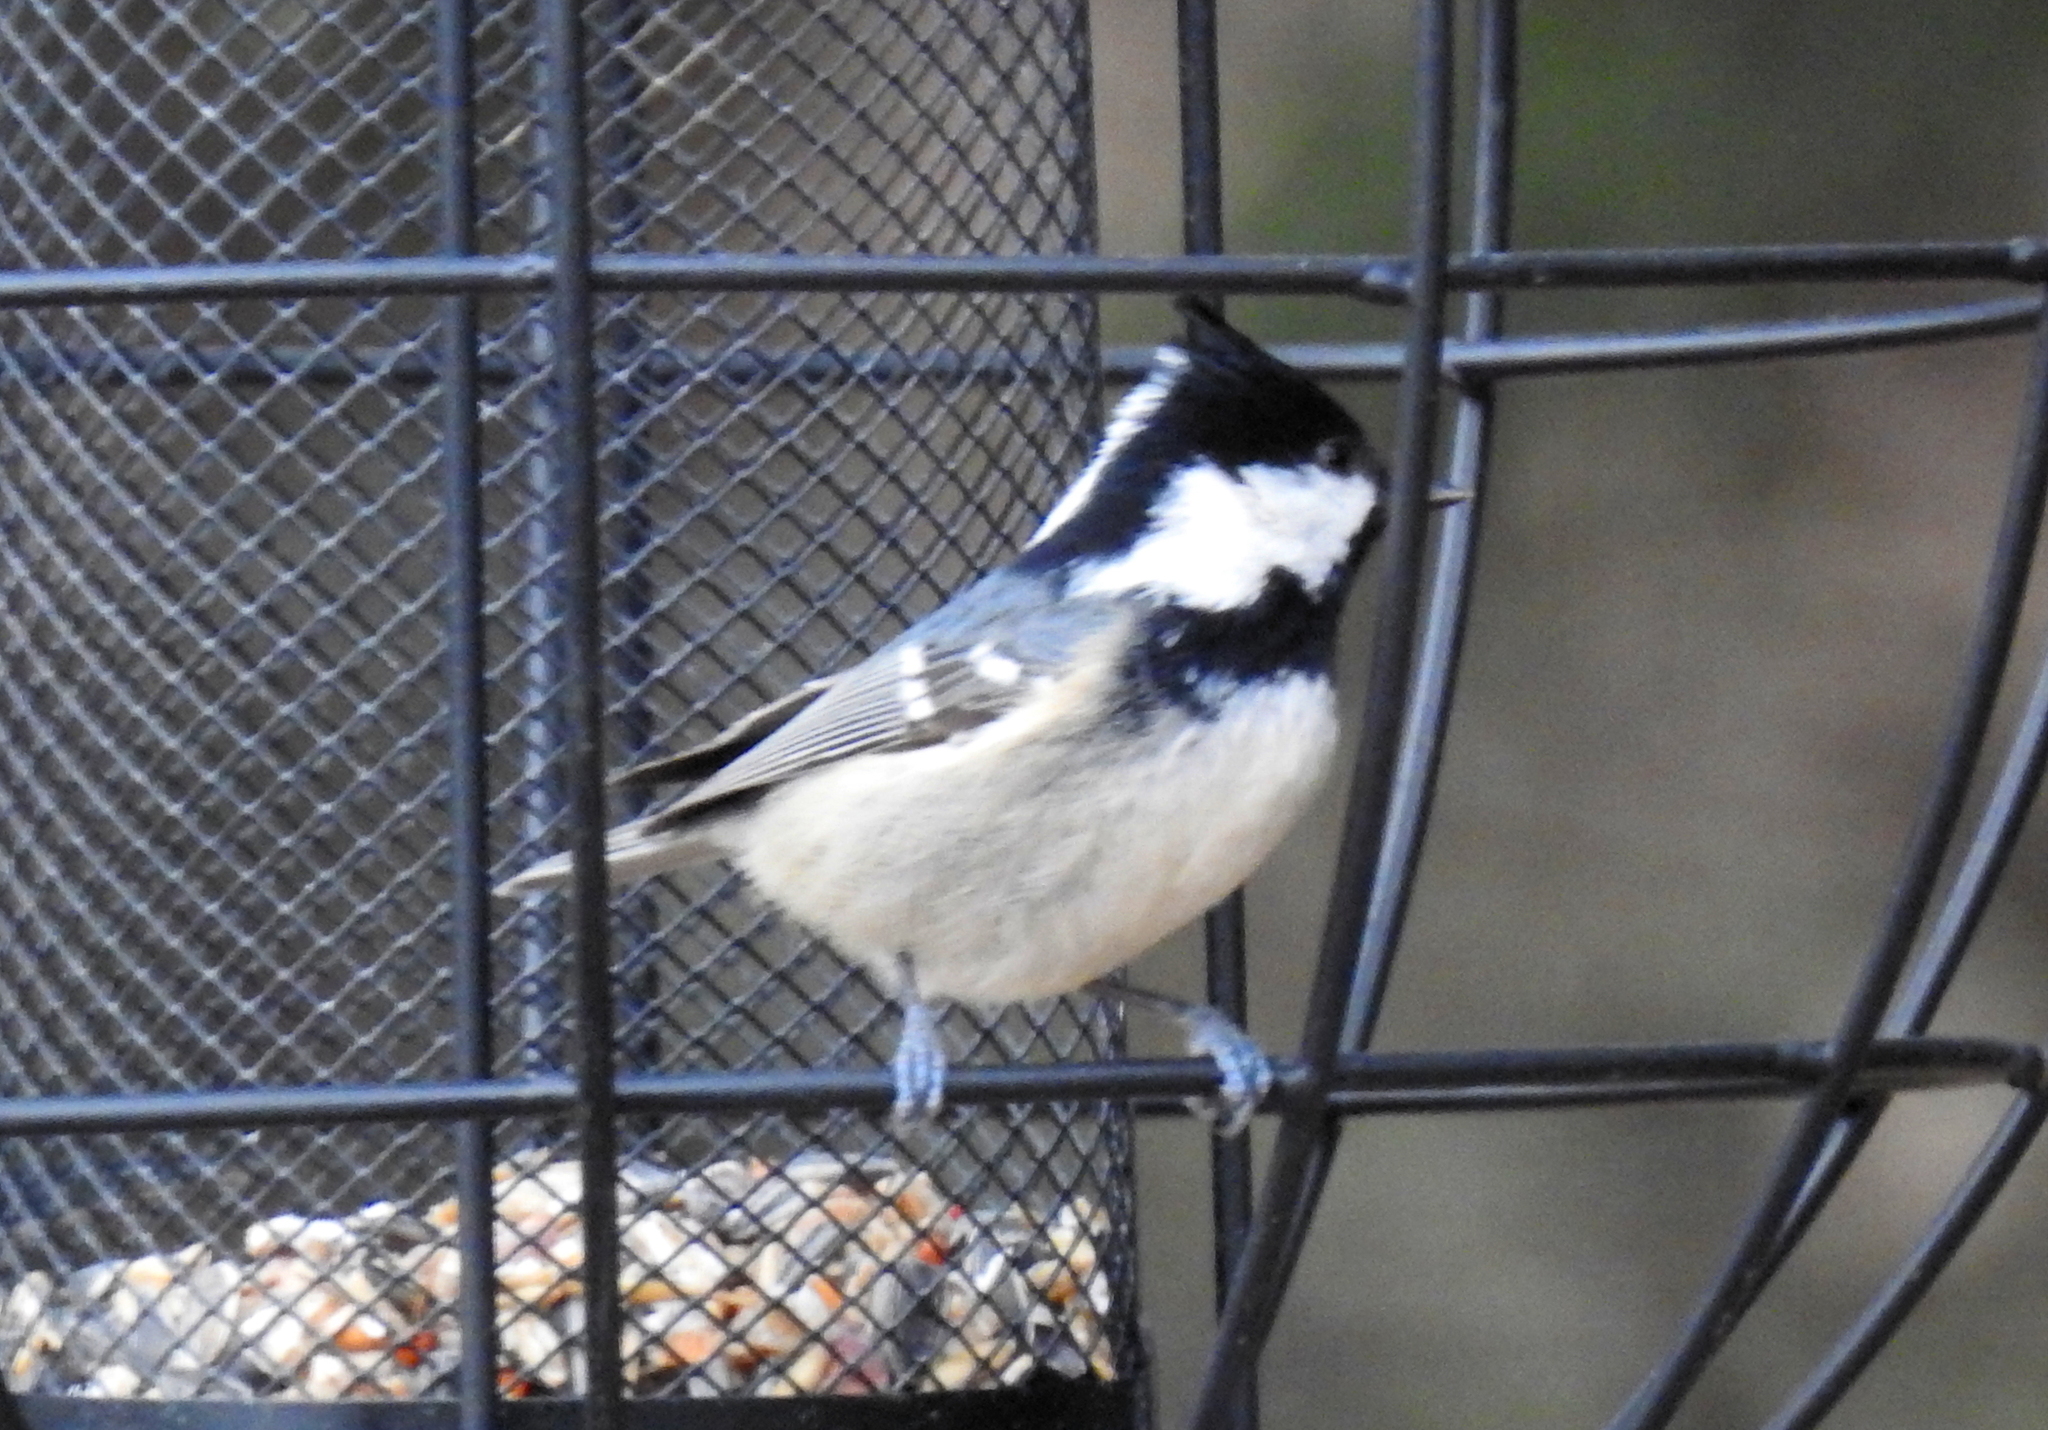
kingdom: Animalia
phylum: Chordata
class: Aves
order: Passeriformes
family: Paridae
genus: Periparus
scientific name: Periparus ater
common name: Coal tit
